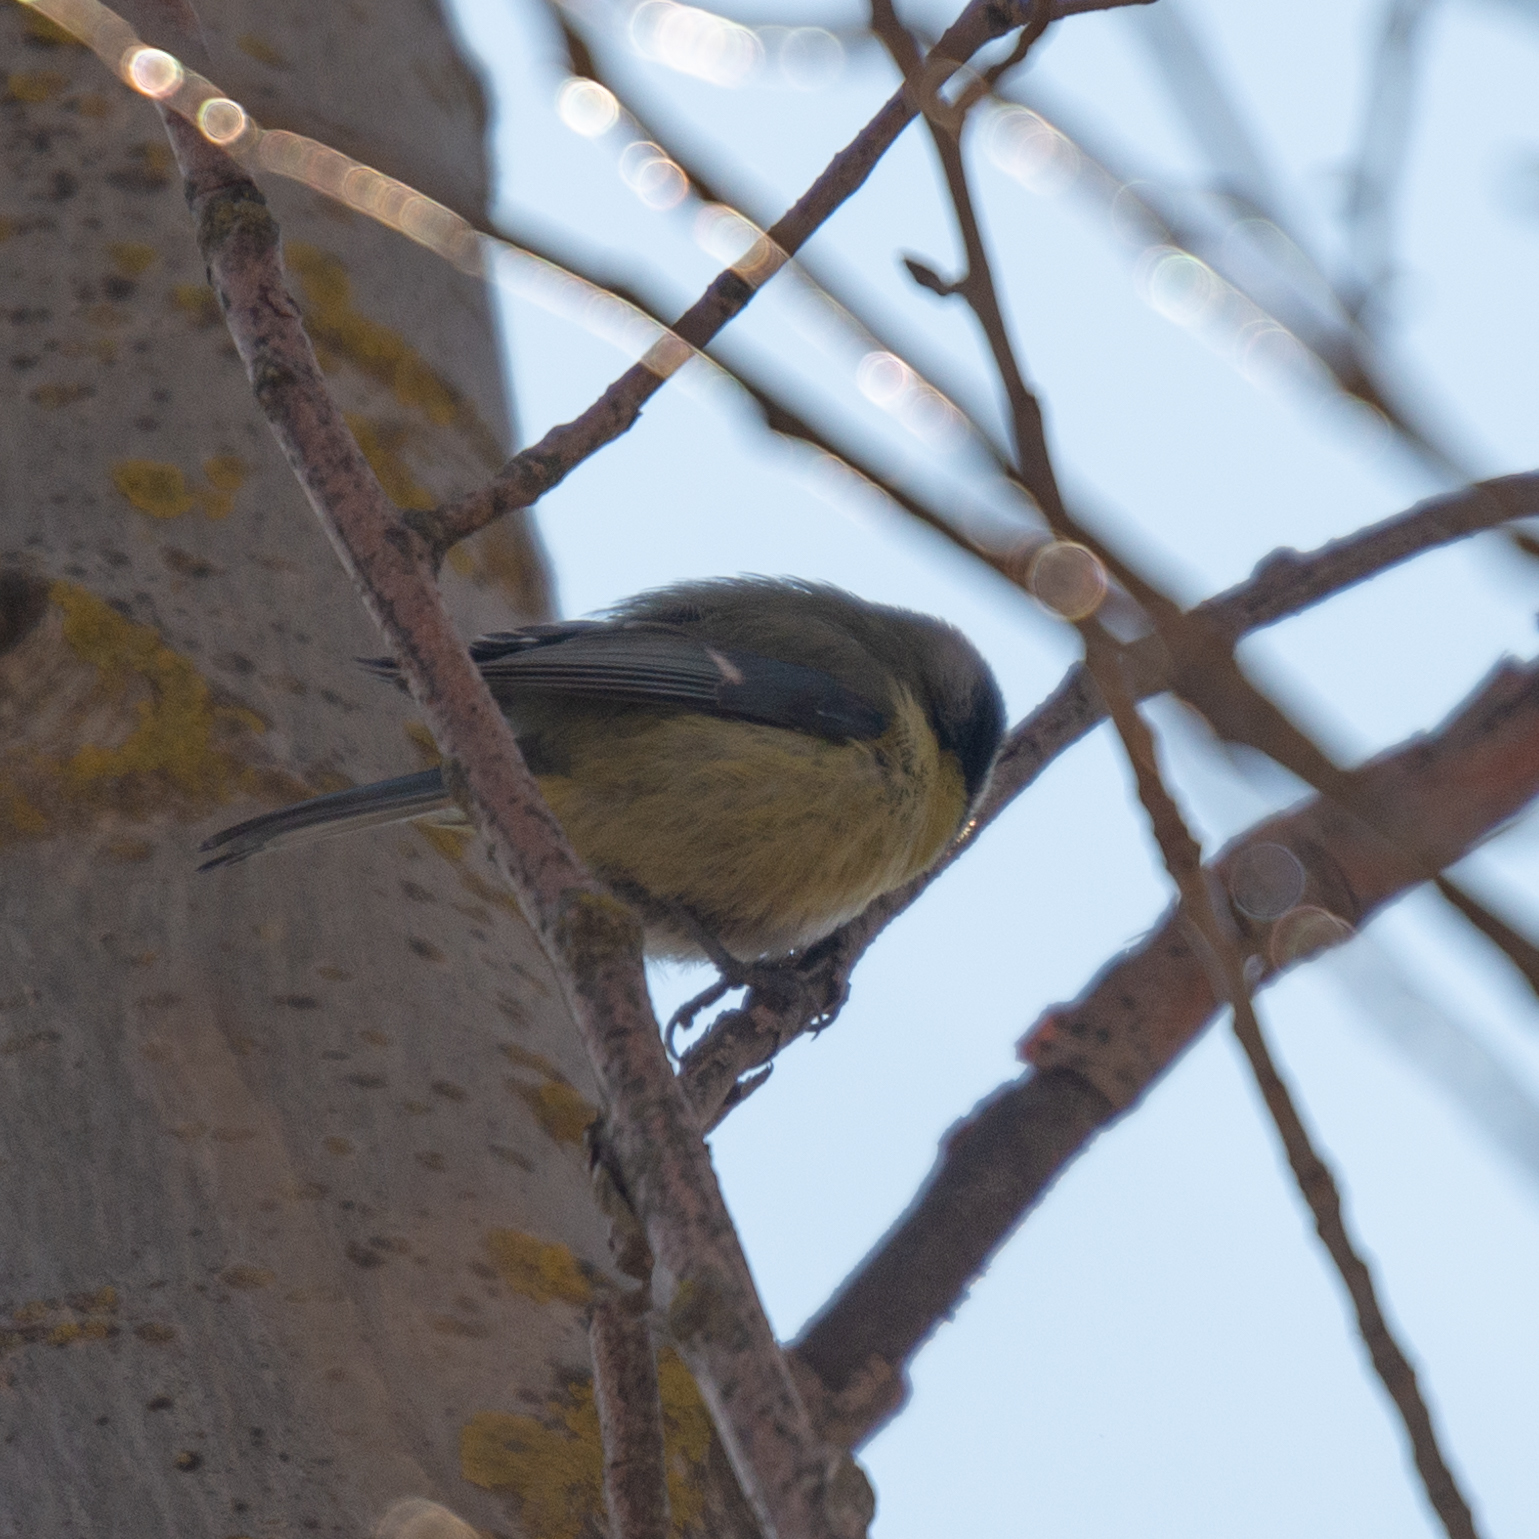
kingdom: Animalia
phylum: Chordata
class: Aves
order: Passeriformes
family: Paridae
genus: Cyanistes
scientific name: Cyanistes caeruleus
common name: Eurasian blue tit
